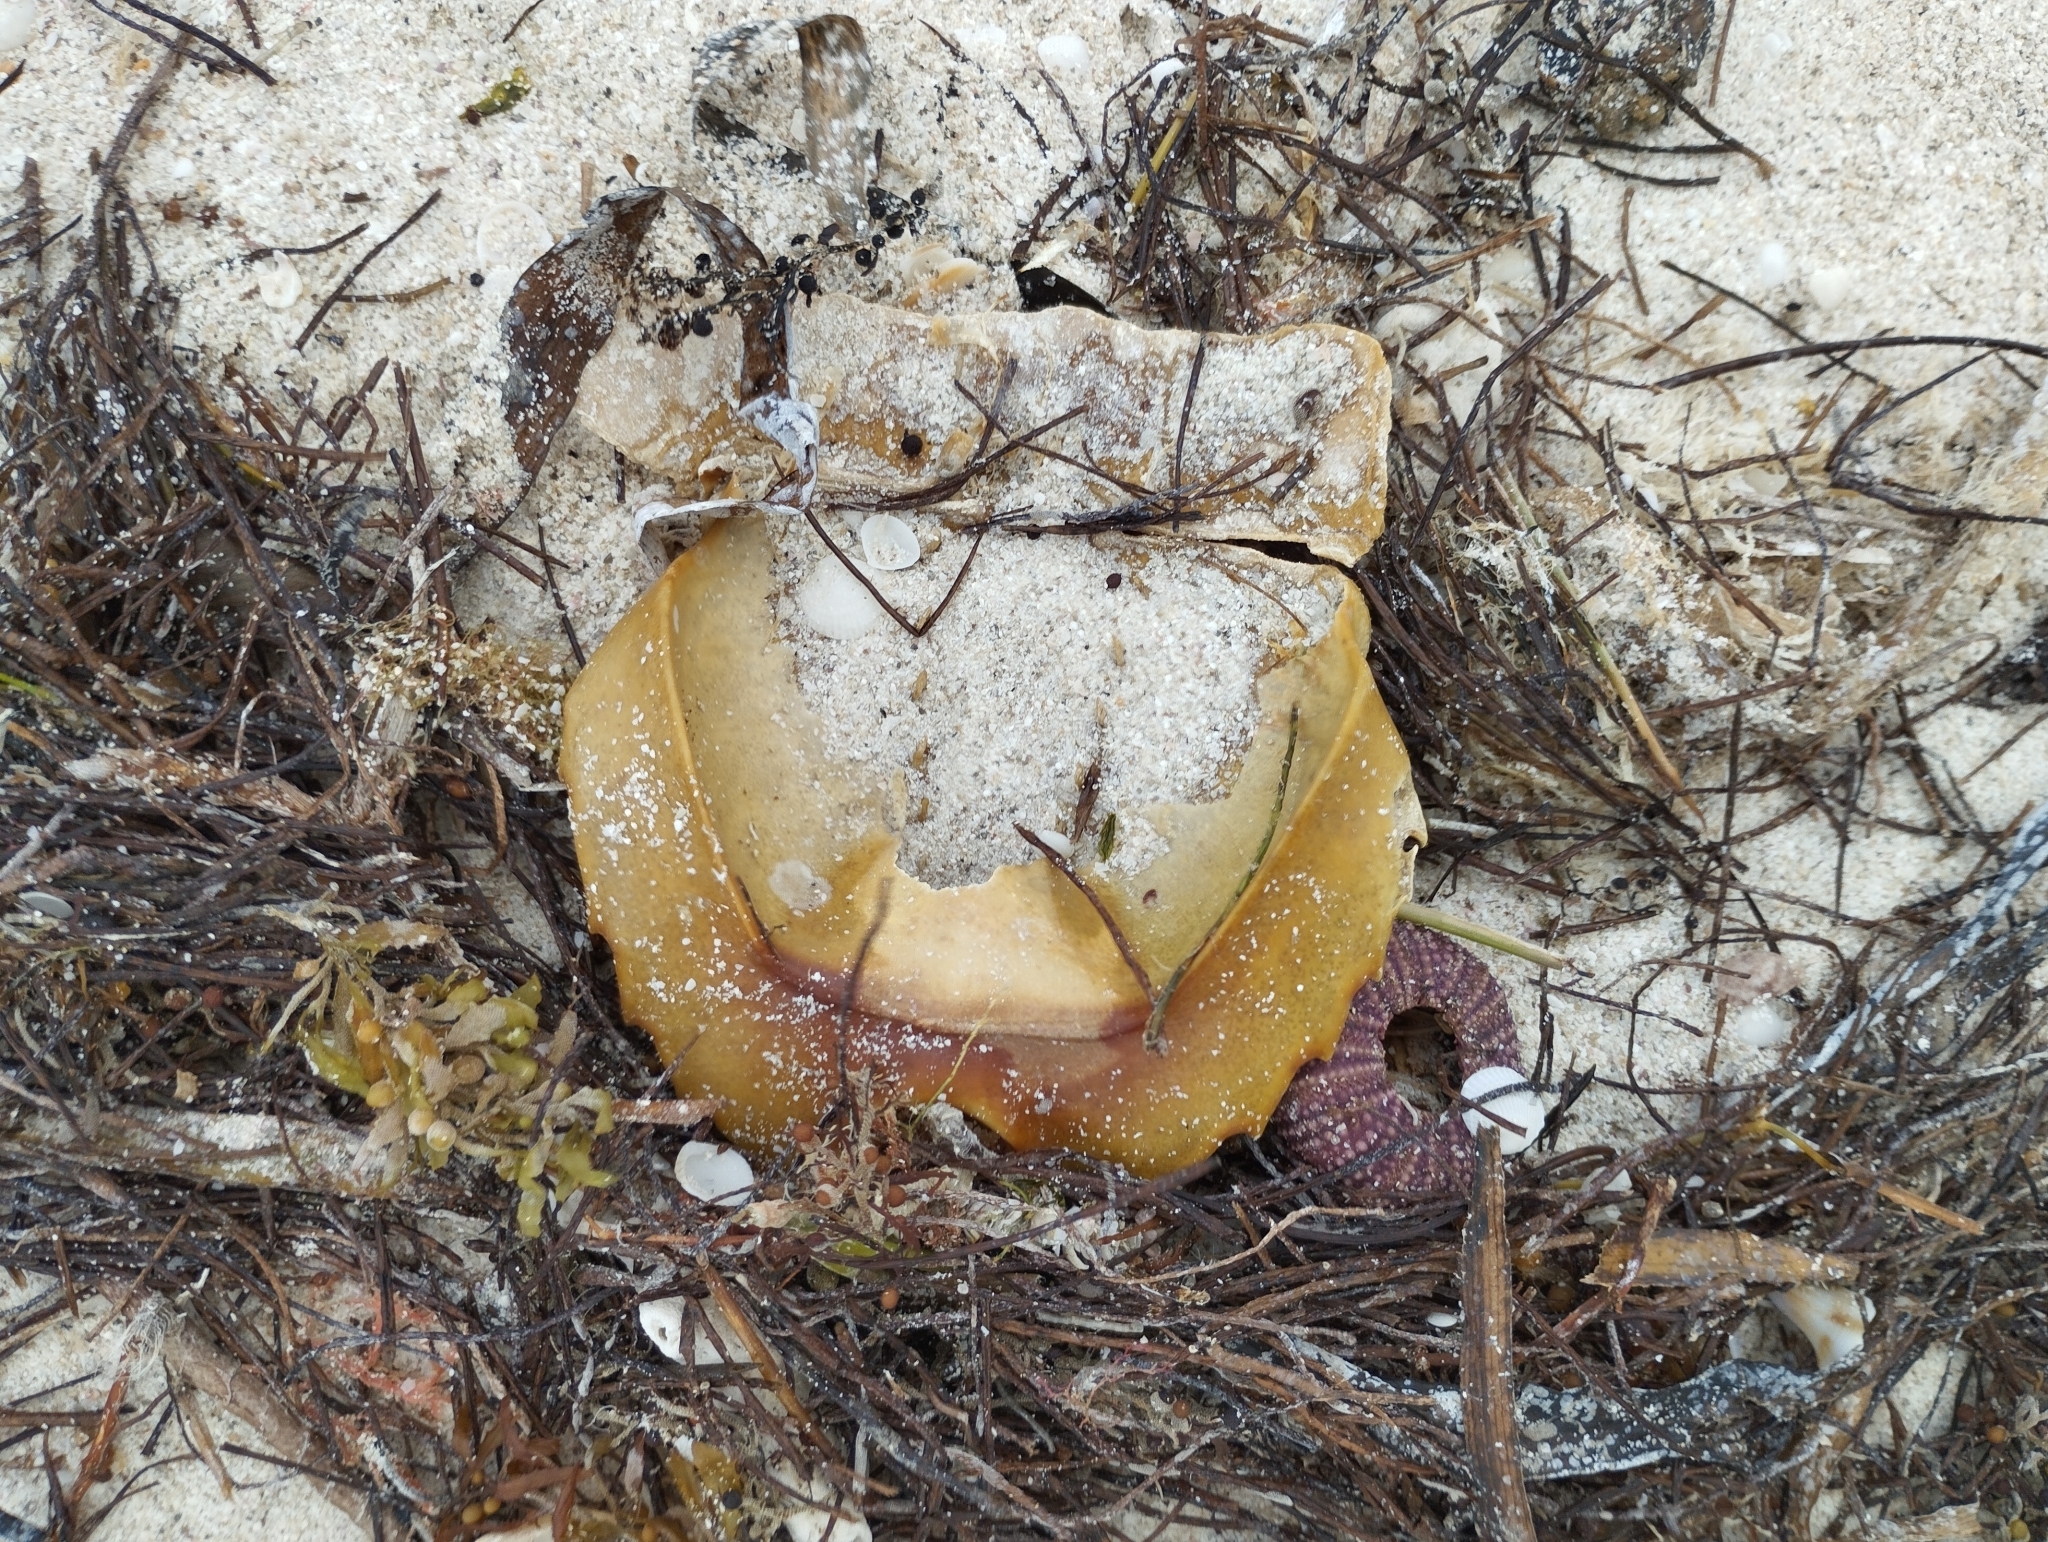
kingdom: Animalia
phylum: Arthropoda
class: Merostomata
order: Xiphosurida
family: Limulidae
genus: Limulus
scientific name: Limulus polyphemus
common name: Horseshoe crab
